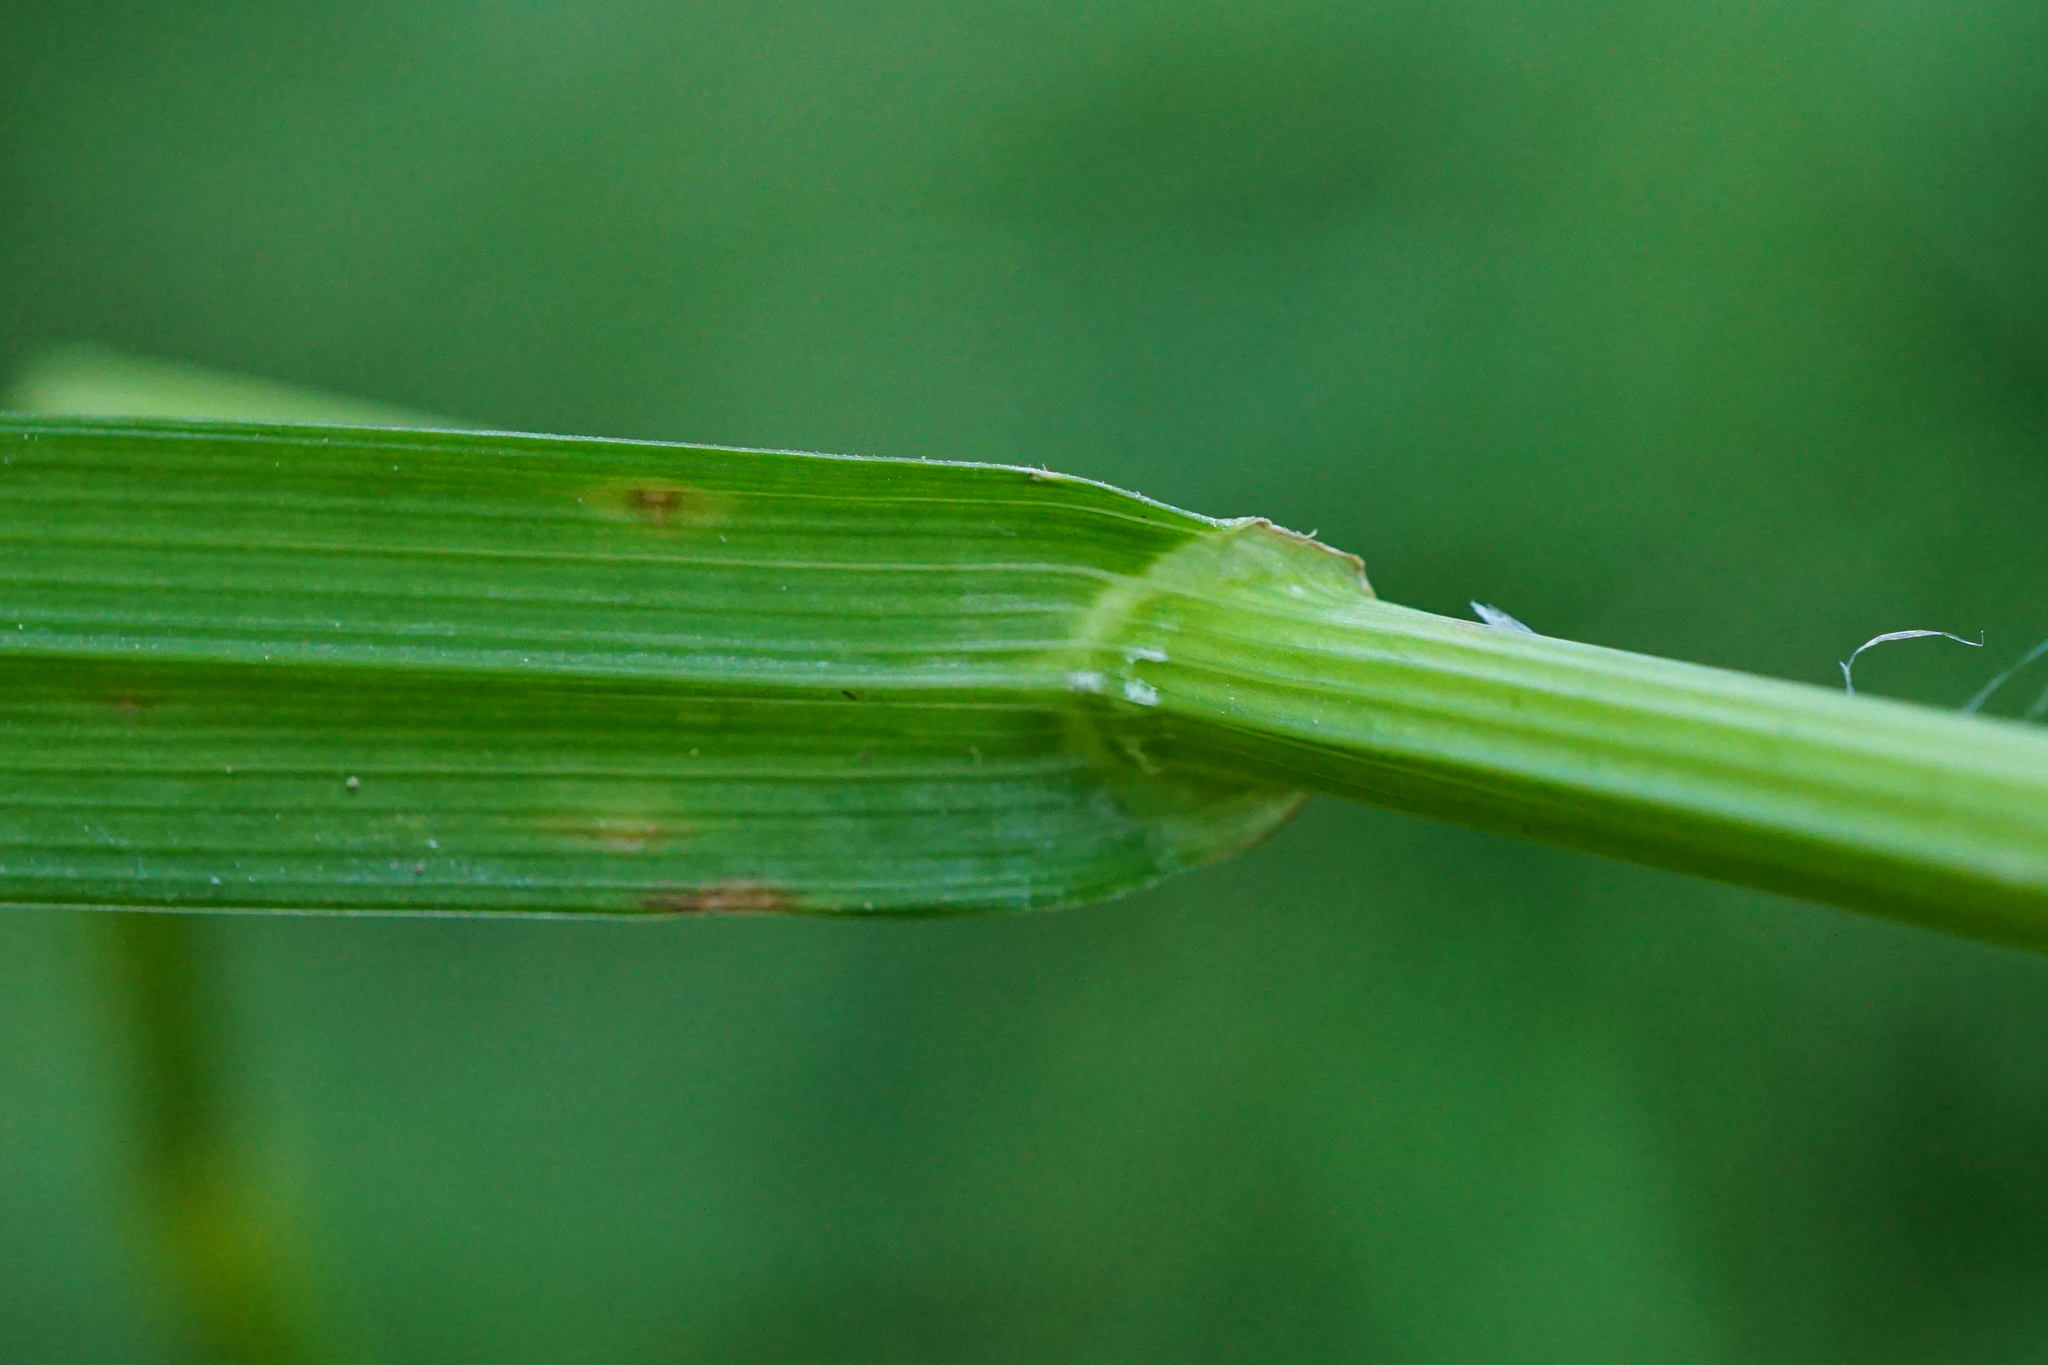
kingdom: Plantae
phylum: Tracheophyta
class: Liliopsida
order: Poales
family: Poaceae
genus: Poa
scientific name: Poa trivialis
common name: Rough bluegrass
